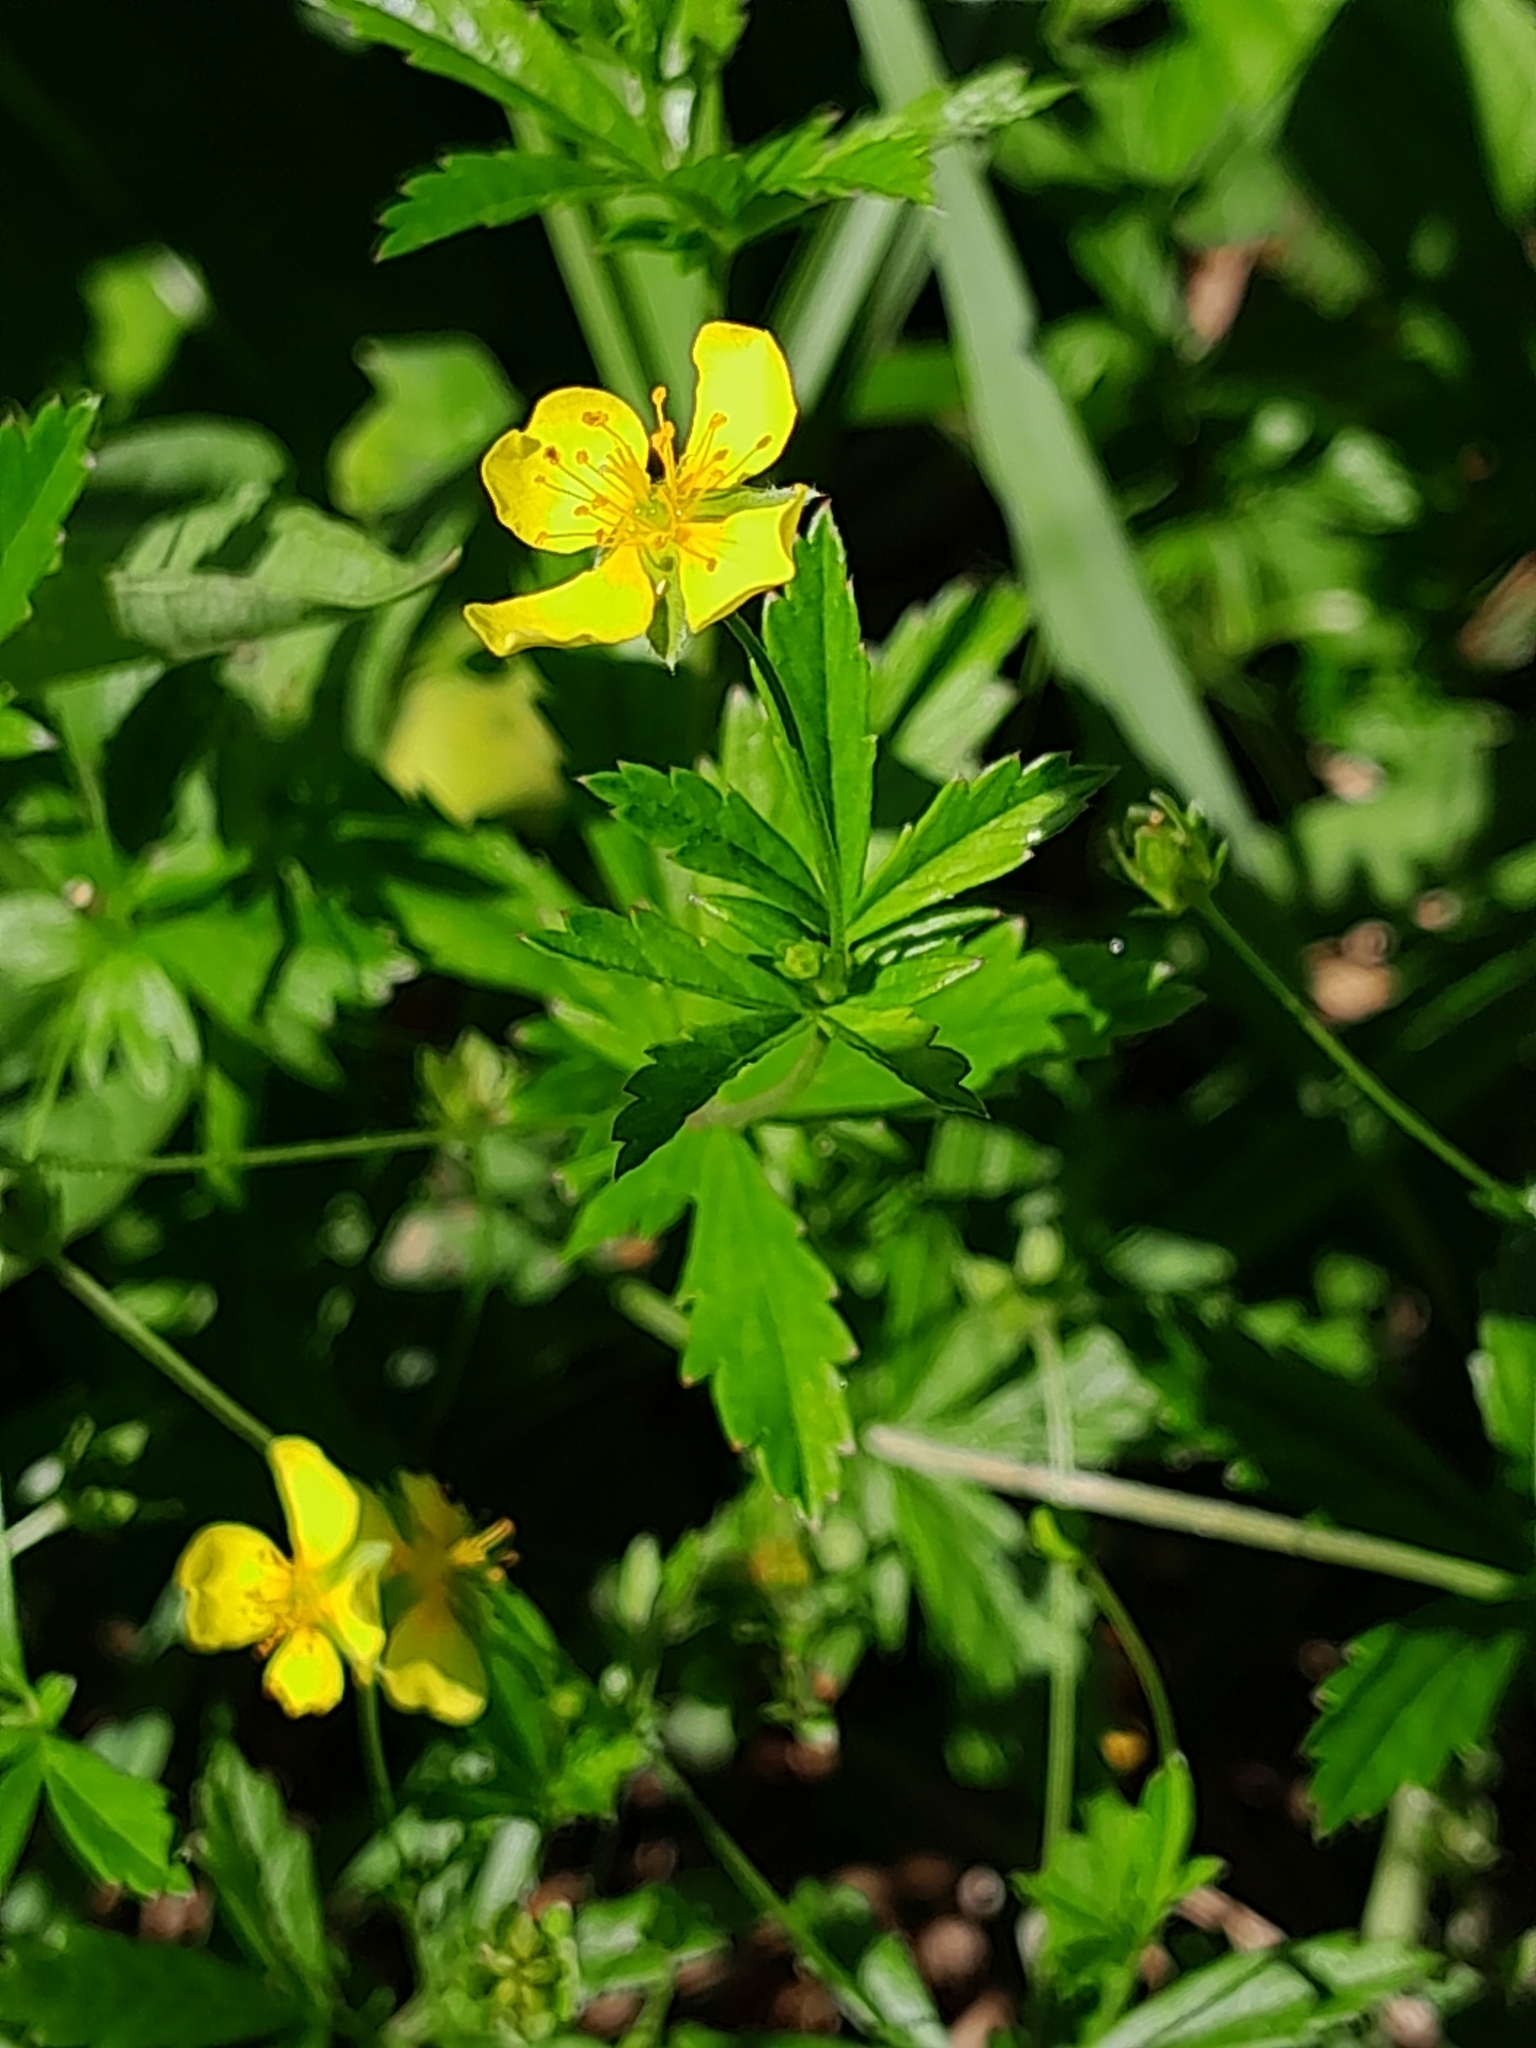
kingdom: Plantae
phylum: Tracheophyta
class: Magnoliopsida
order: Rosales
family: Rosaceae
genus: Potentilla
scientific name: Potentilla erecta
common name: Tormentil
